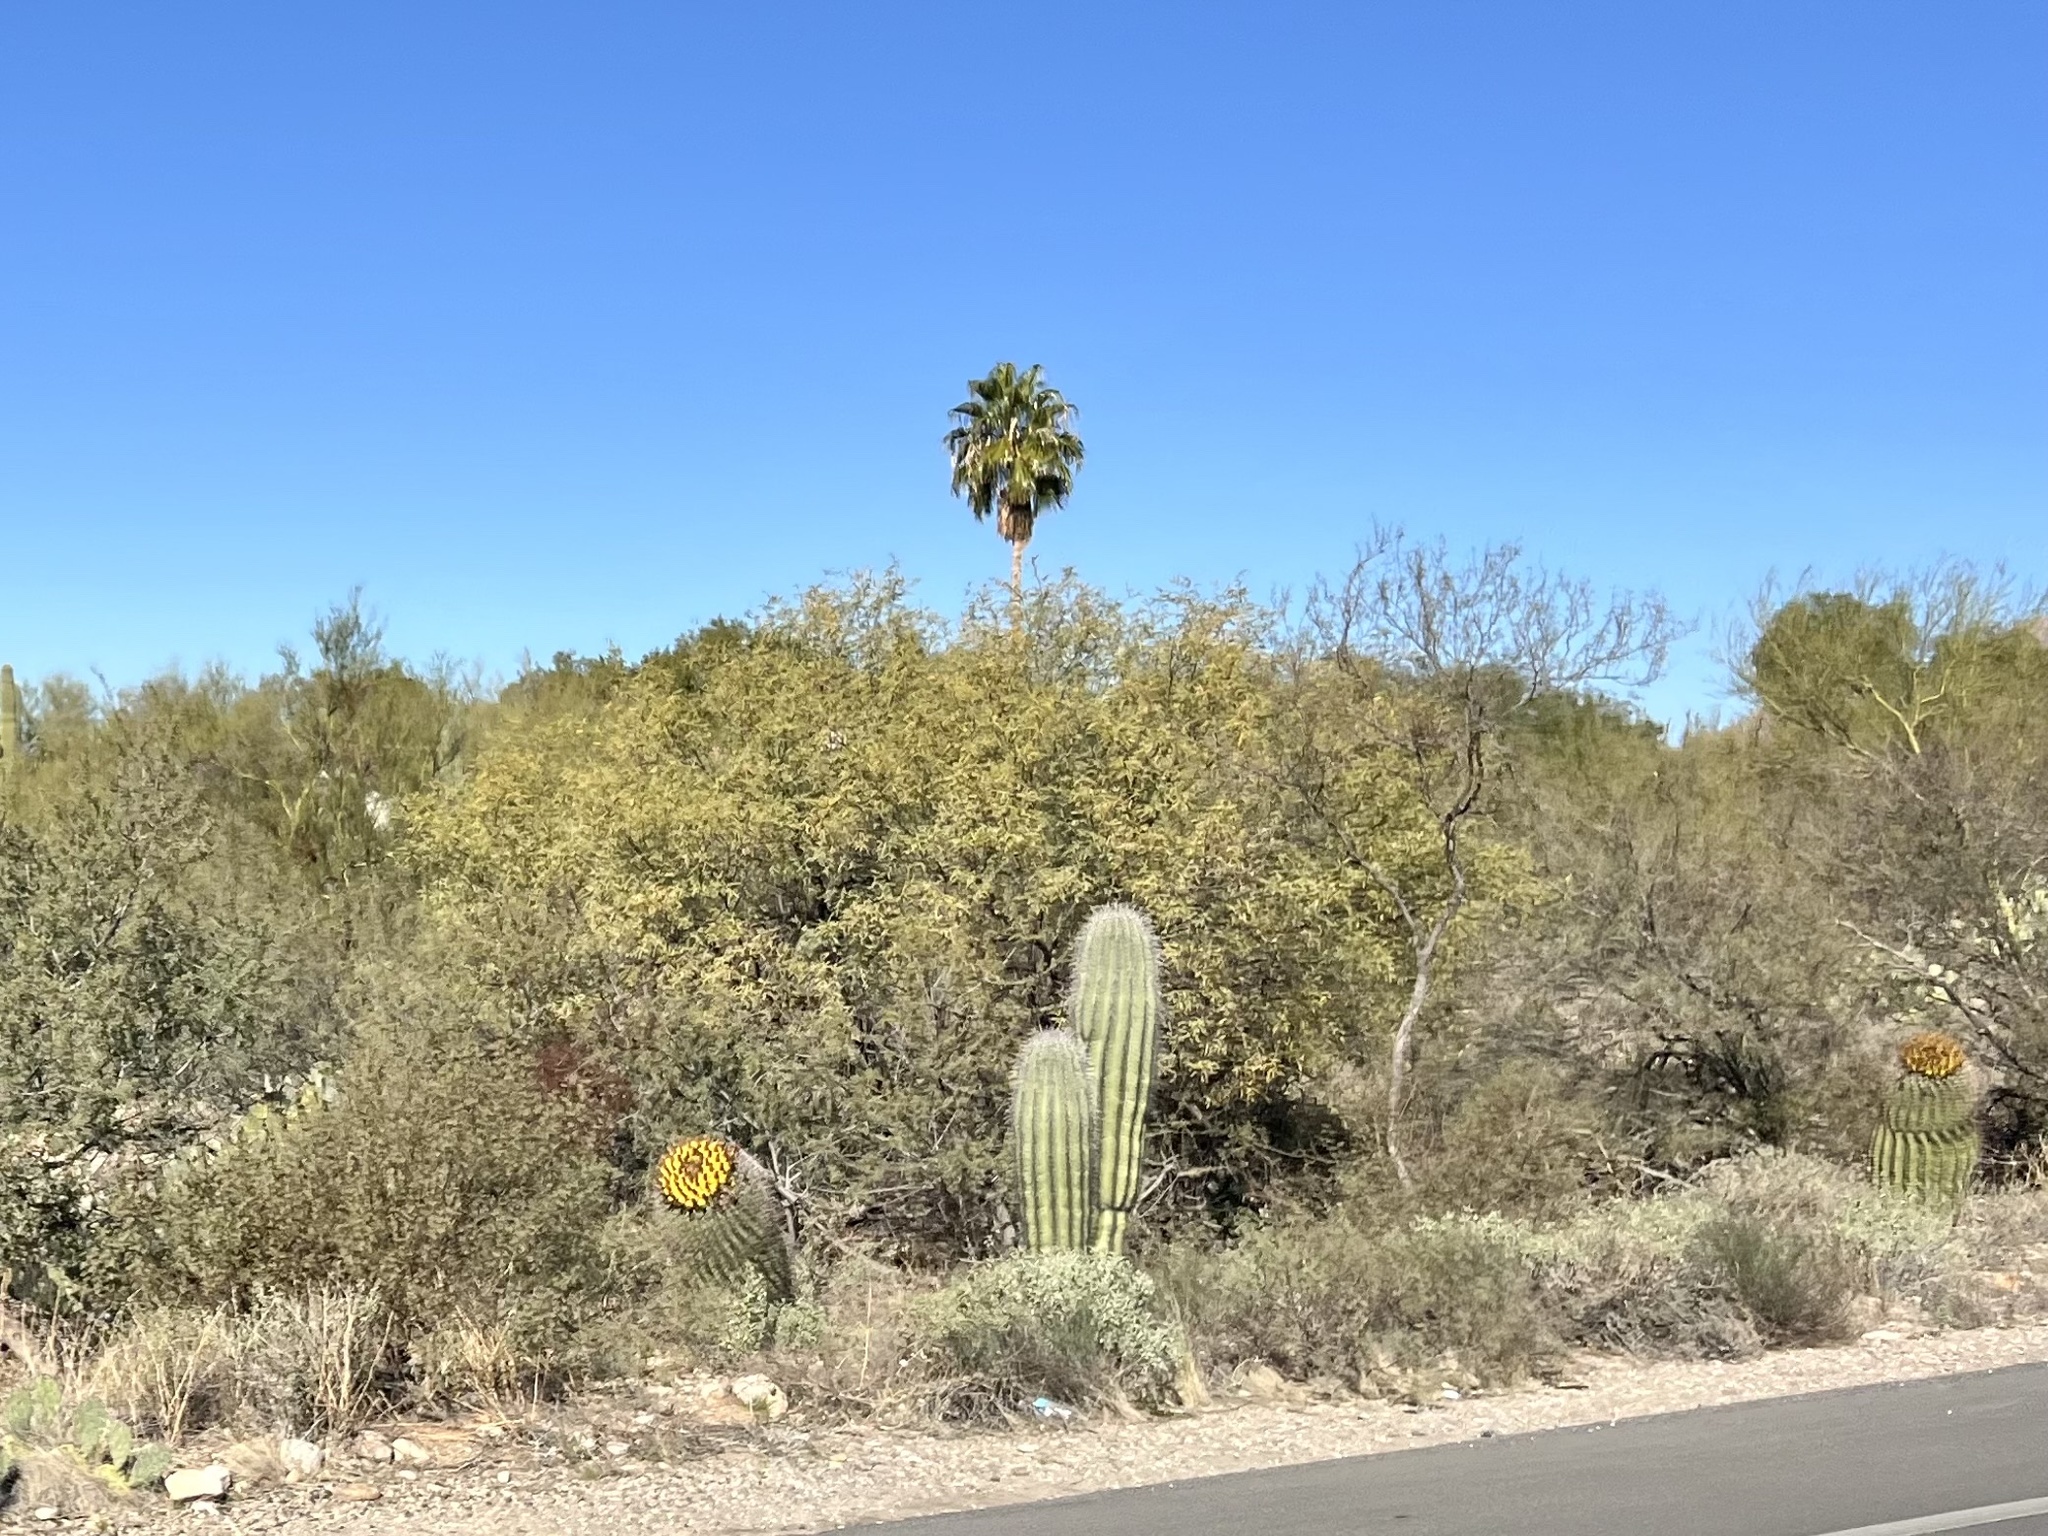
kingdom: Plantae
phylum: Tracheophyta
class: Magnoliopsida
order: Caryophyllales
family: Cactaceae
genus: Carnegiea
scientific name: Carnegiea gigantea
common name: Saguaro
